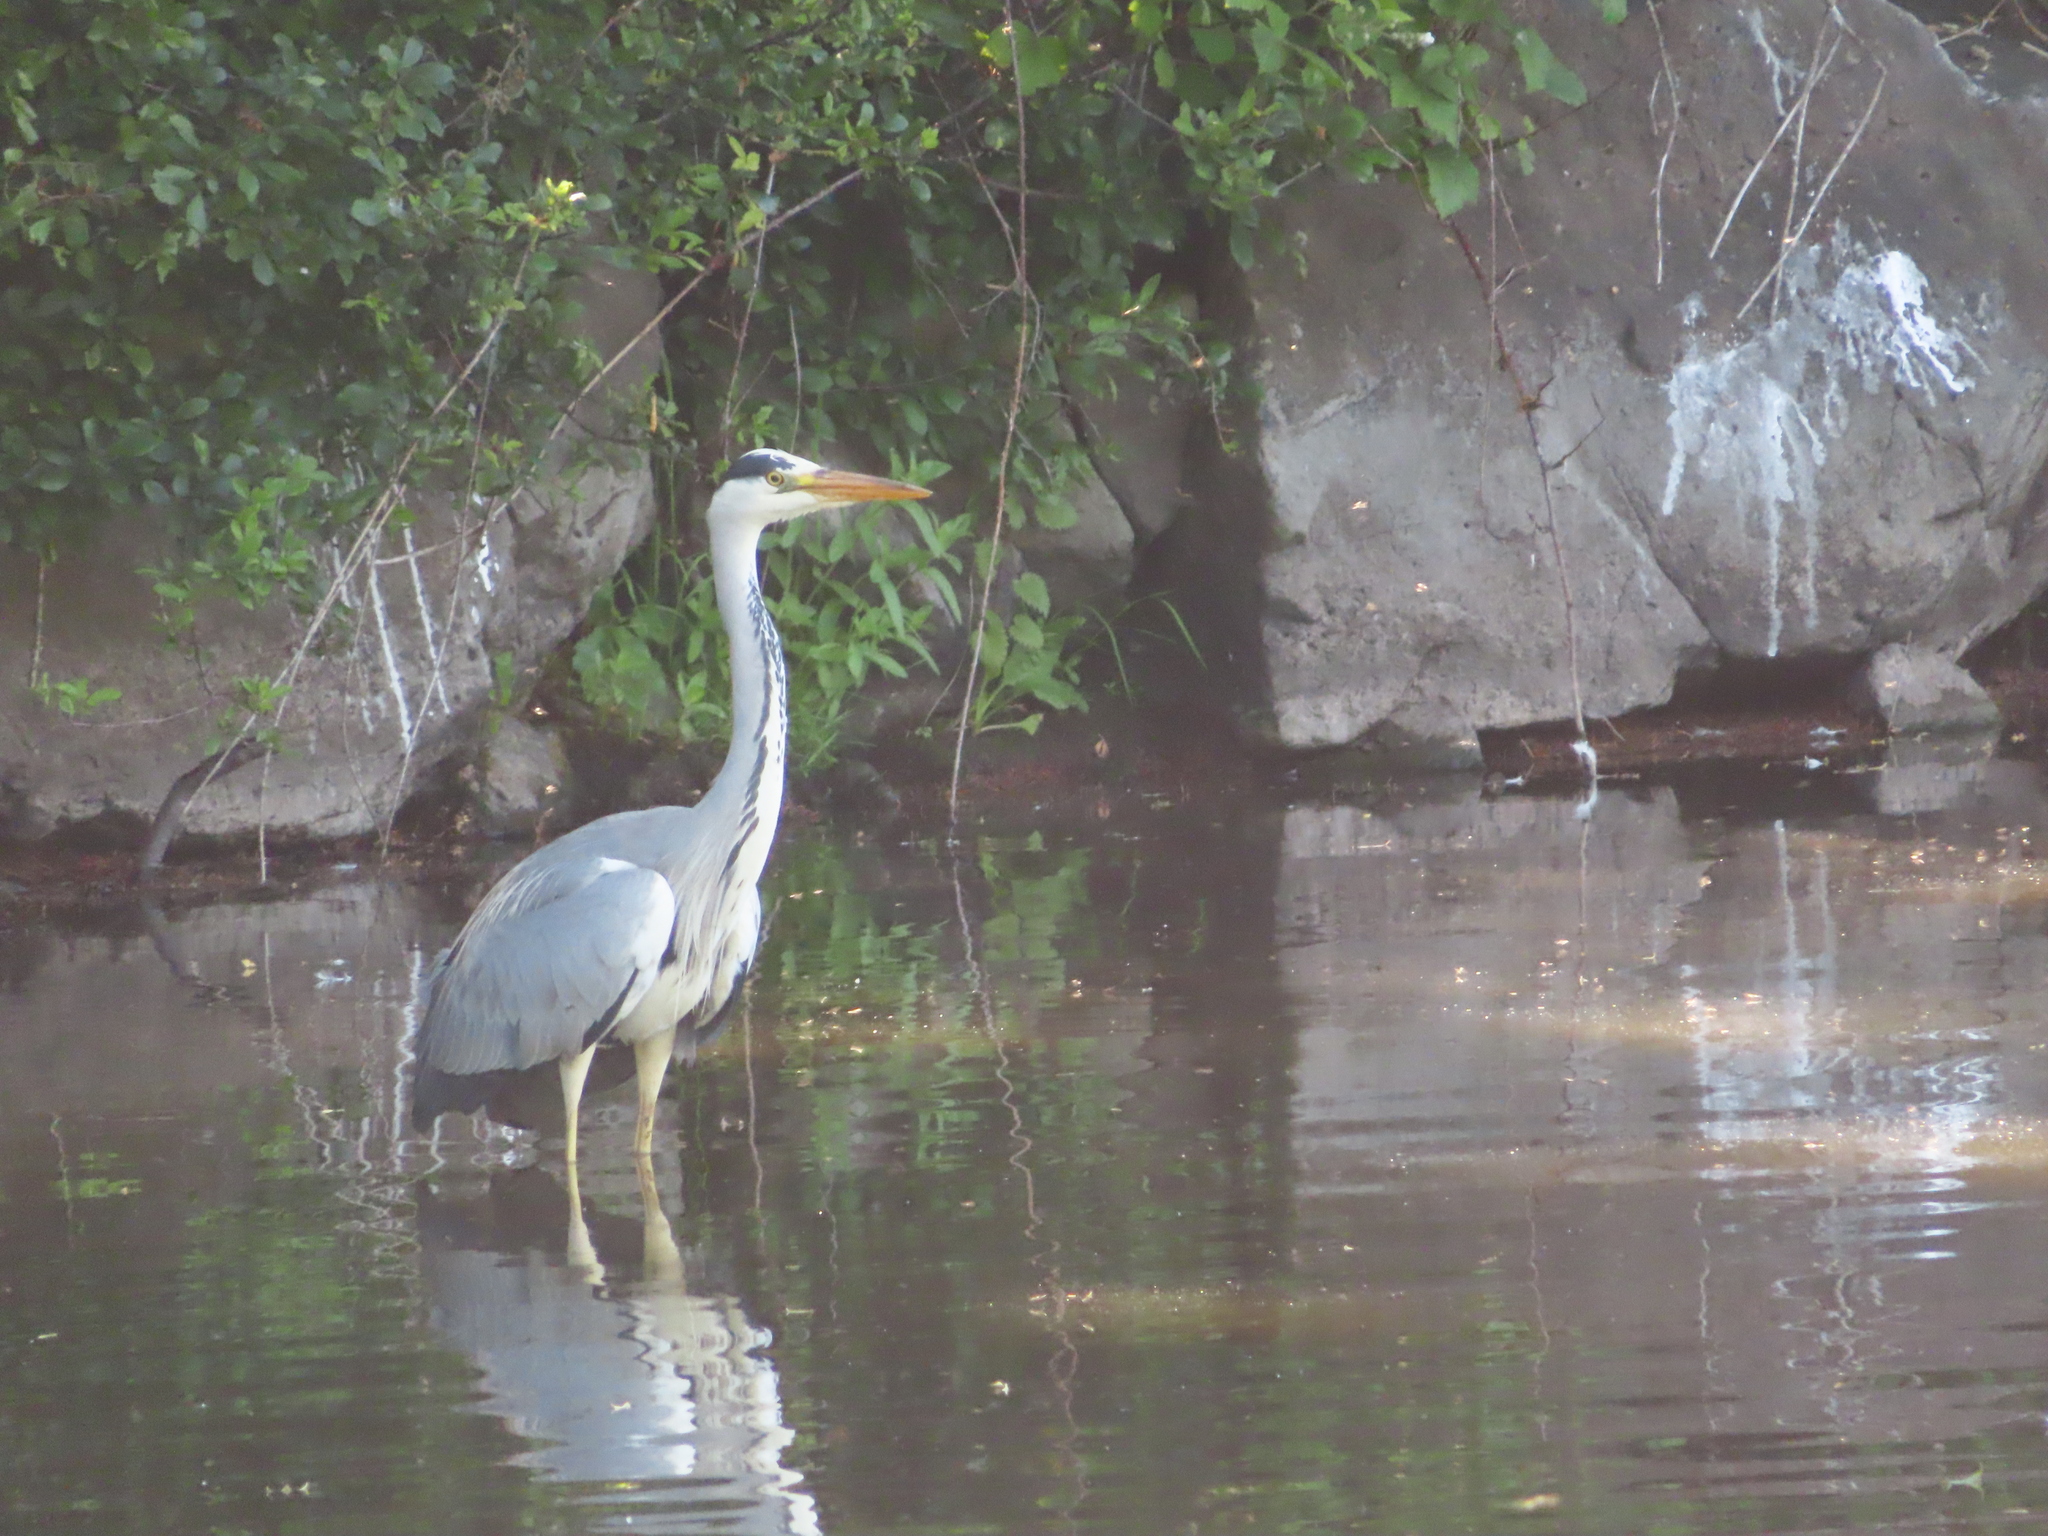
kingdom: Animalia
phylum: Chordata
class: Aves
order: Pelecaniformes
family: Ardeidae
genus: Ardea
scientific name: Ardea cinerea
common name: Grey heron
